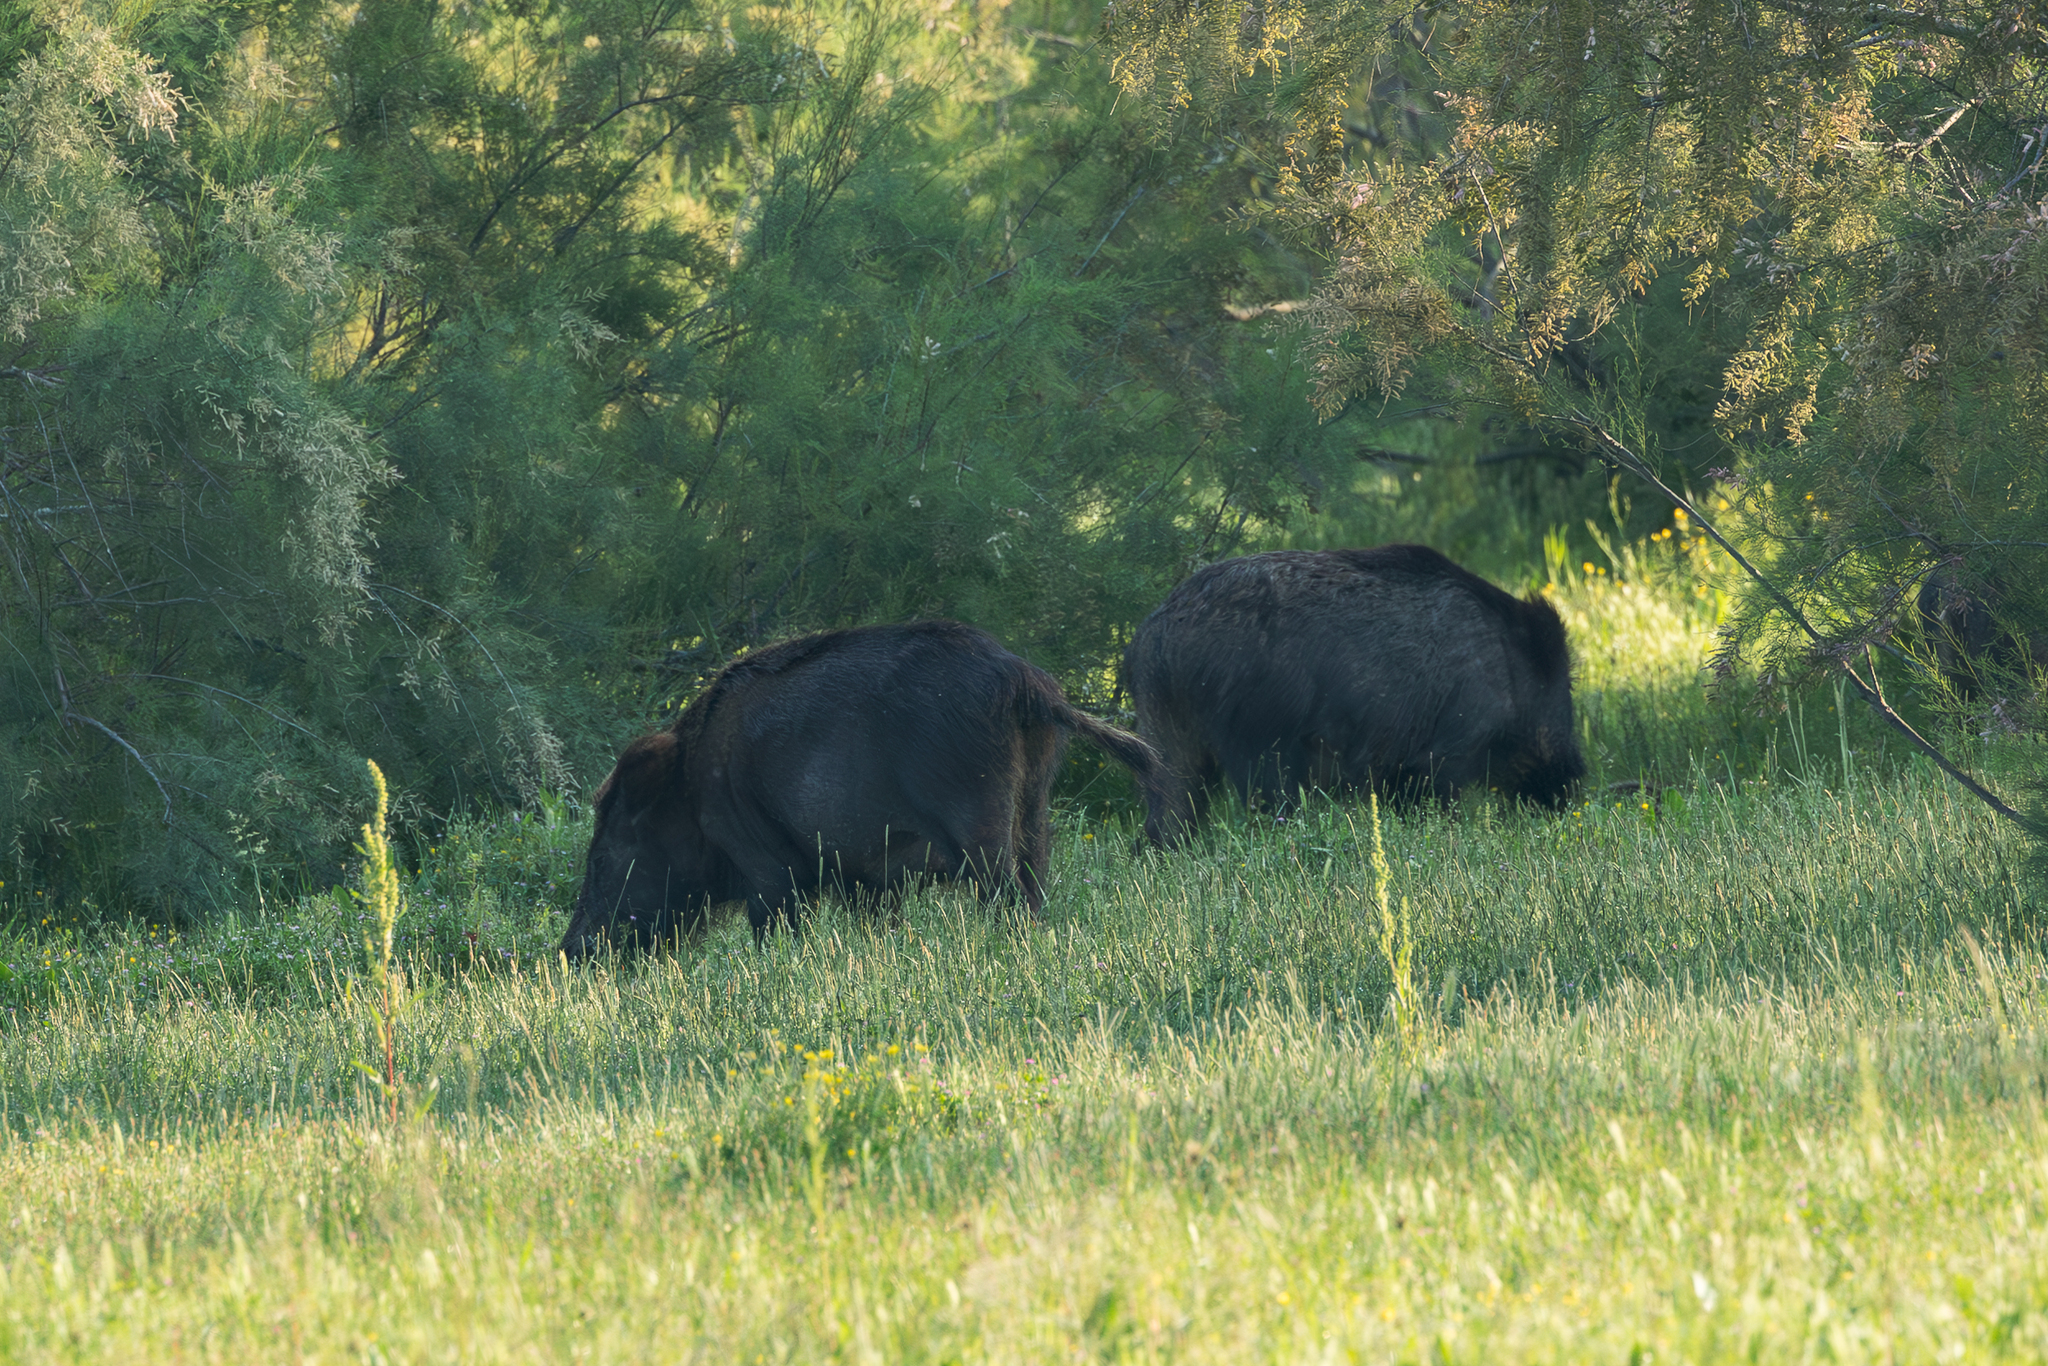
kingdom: Animalia
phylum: Chordata
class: Mammalia
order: Artiodactyla
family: Suidae
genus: Sus
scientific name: Sus scrofa
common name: Wild boar
